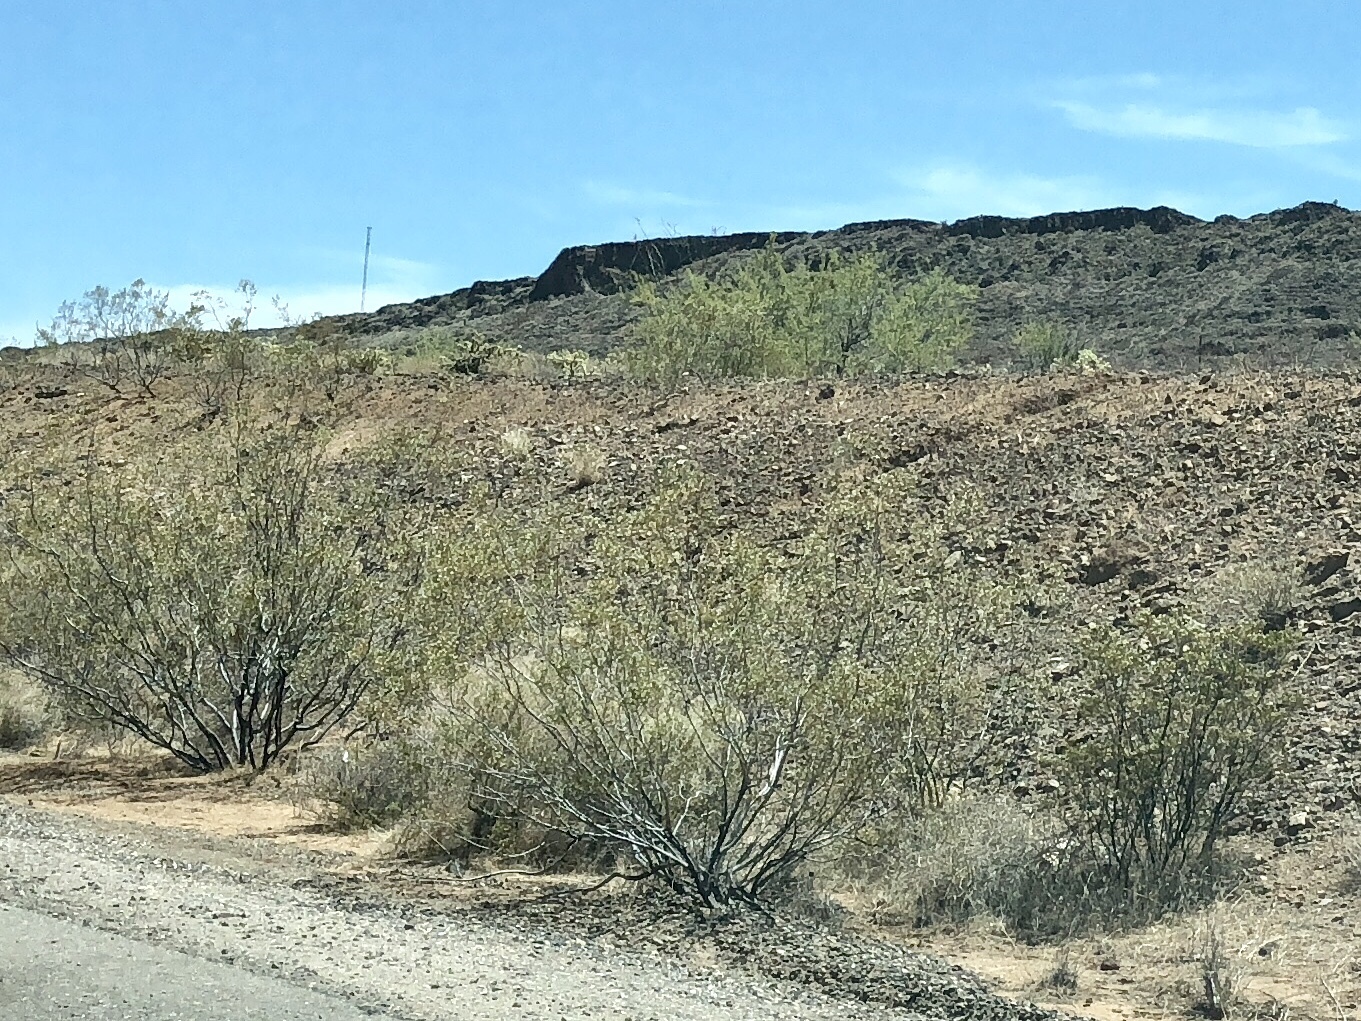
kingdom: Plantae
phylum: Tracheophyta
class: Magnoliopsida
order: Zygophyllales
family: Zygophyllaceae
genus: Larrea
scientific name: Larrea tridentata
